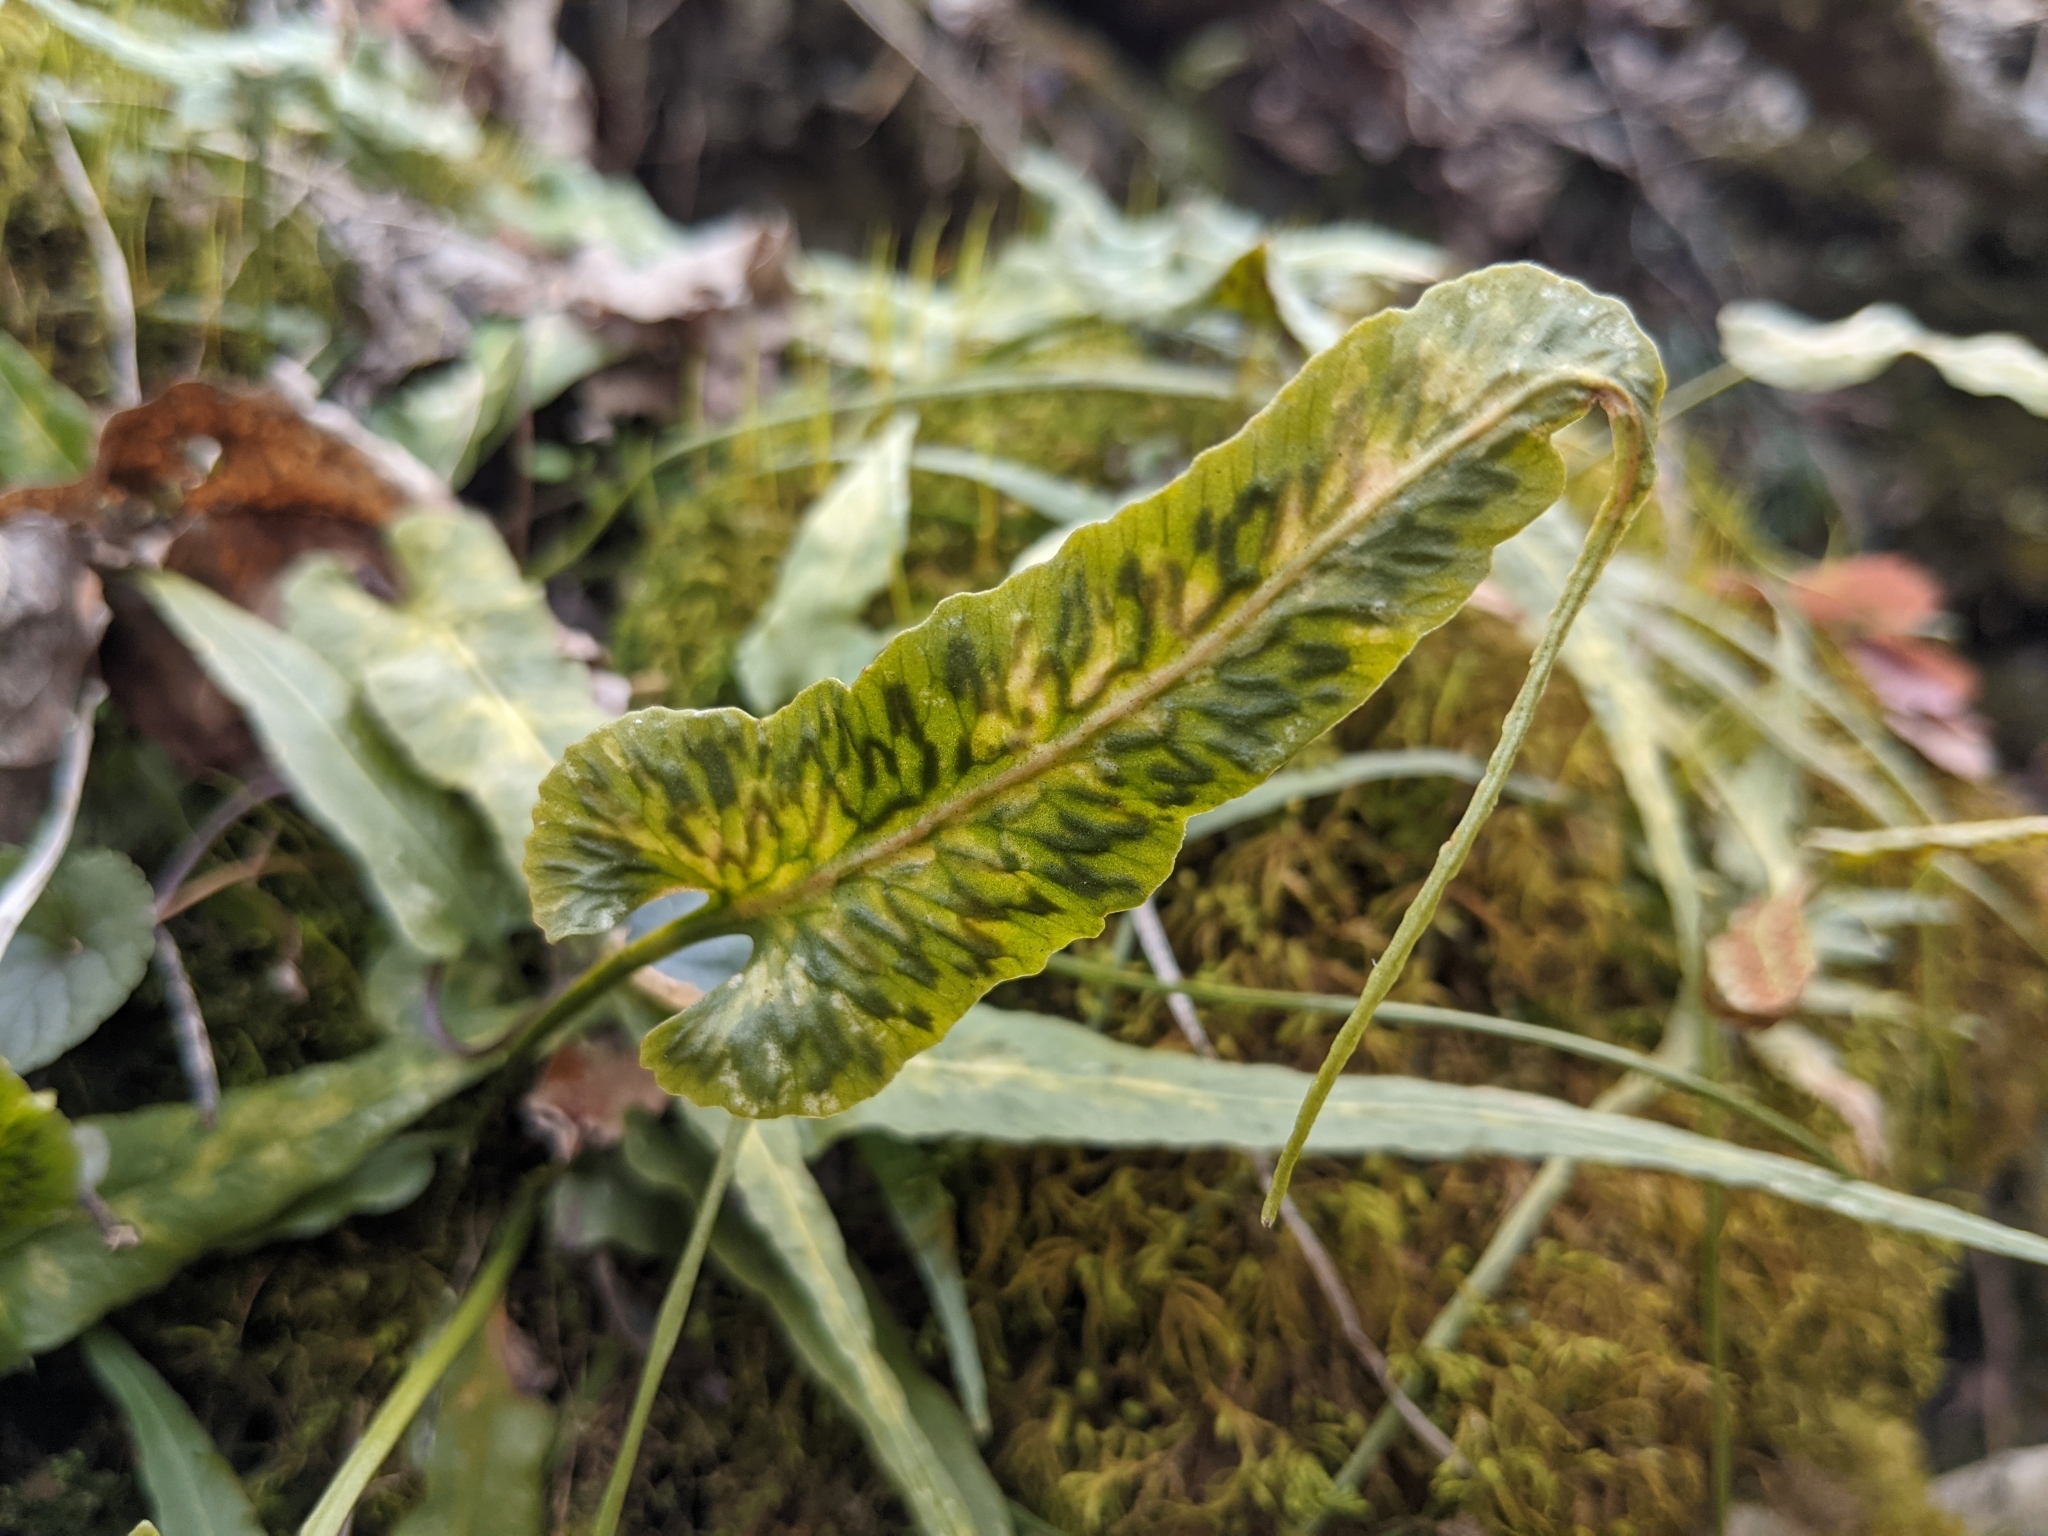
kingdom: Plantae
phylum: Tracheophyta
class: Polypodiopsida
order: Polypodiales
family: Aspleniaceae
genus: Asplenium
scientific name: Asplenium rhizophyllum
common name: Walking fern
